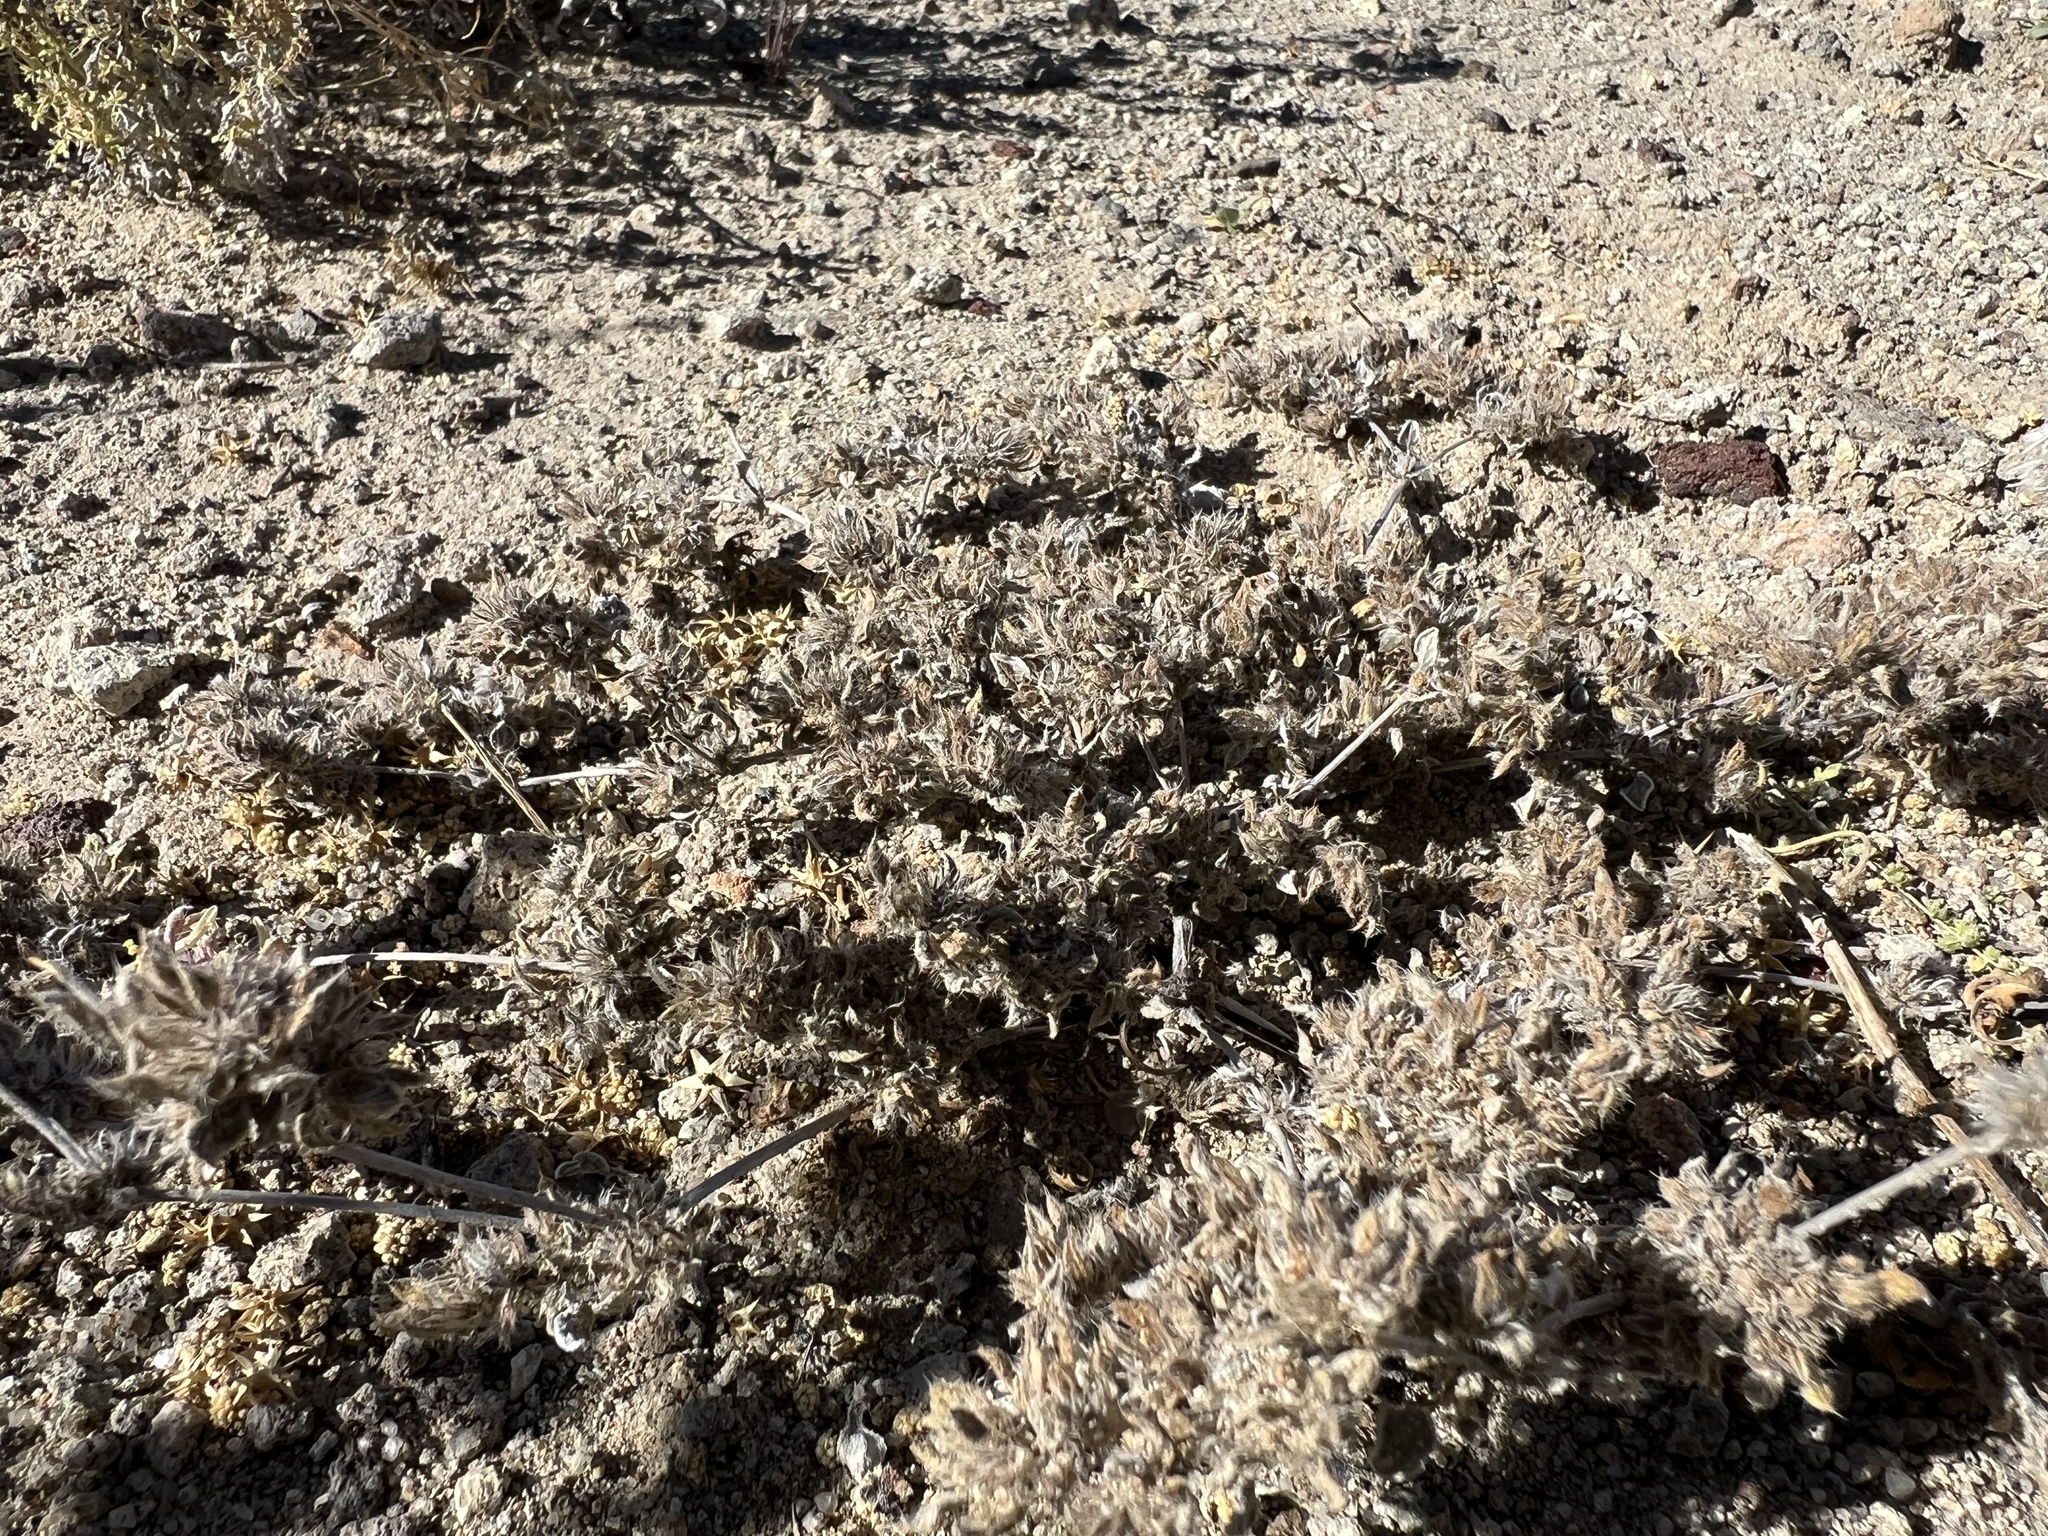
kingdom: Plantae
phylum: Tracheophyta
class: Magnoliopsida
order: Boraginales
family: Ehretiaceae
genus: Tiquilia
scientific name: Tiquilia nuttallii
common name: Rosette tiquilia
